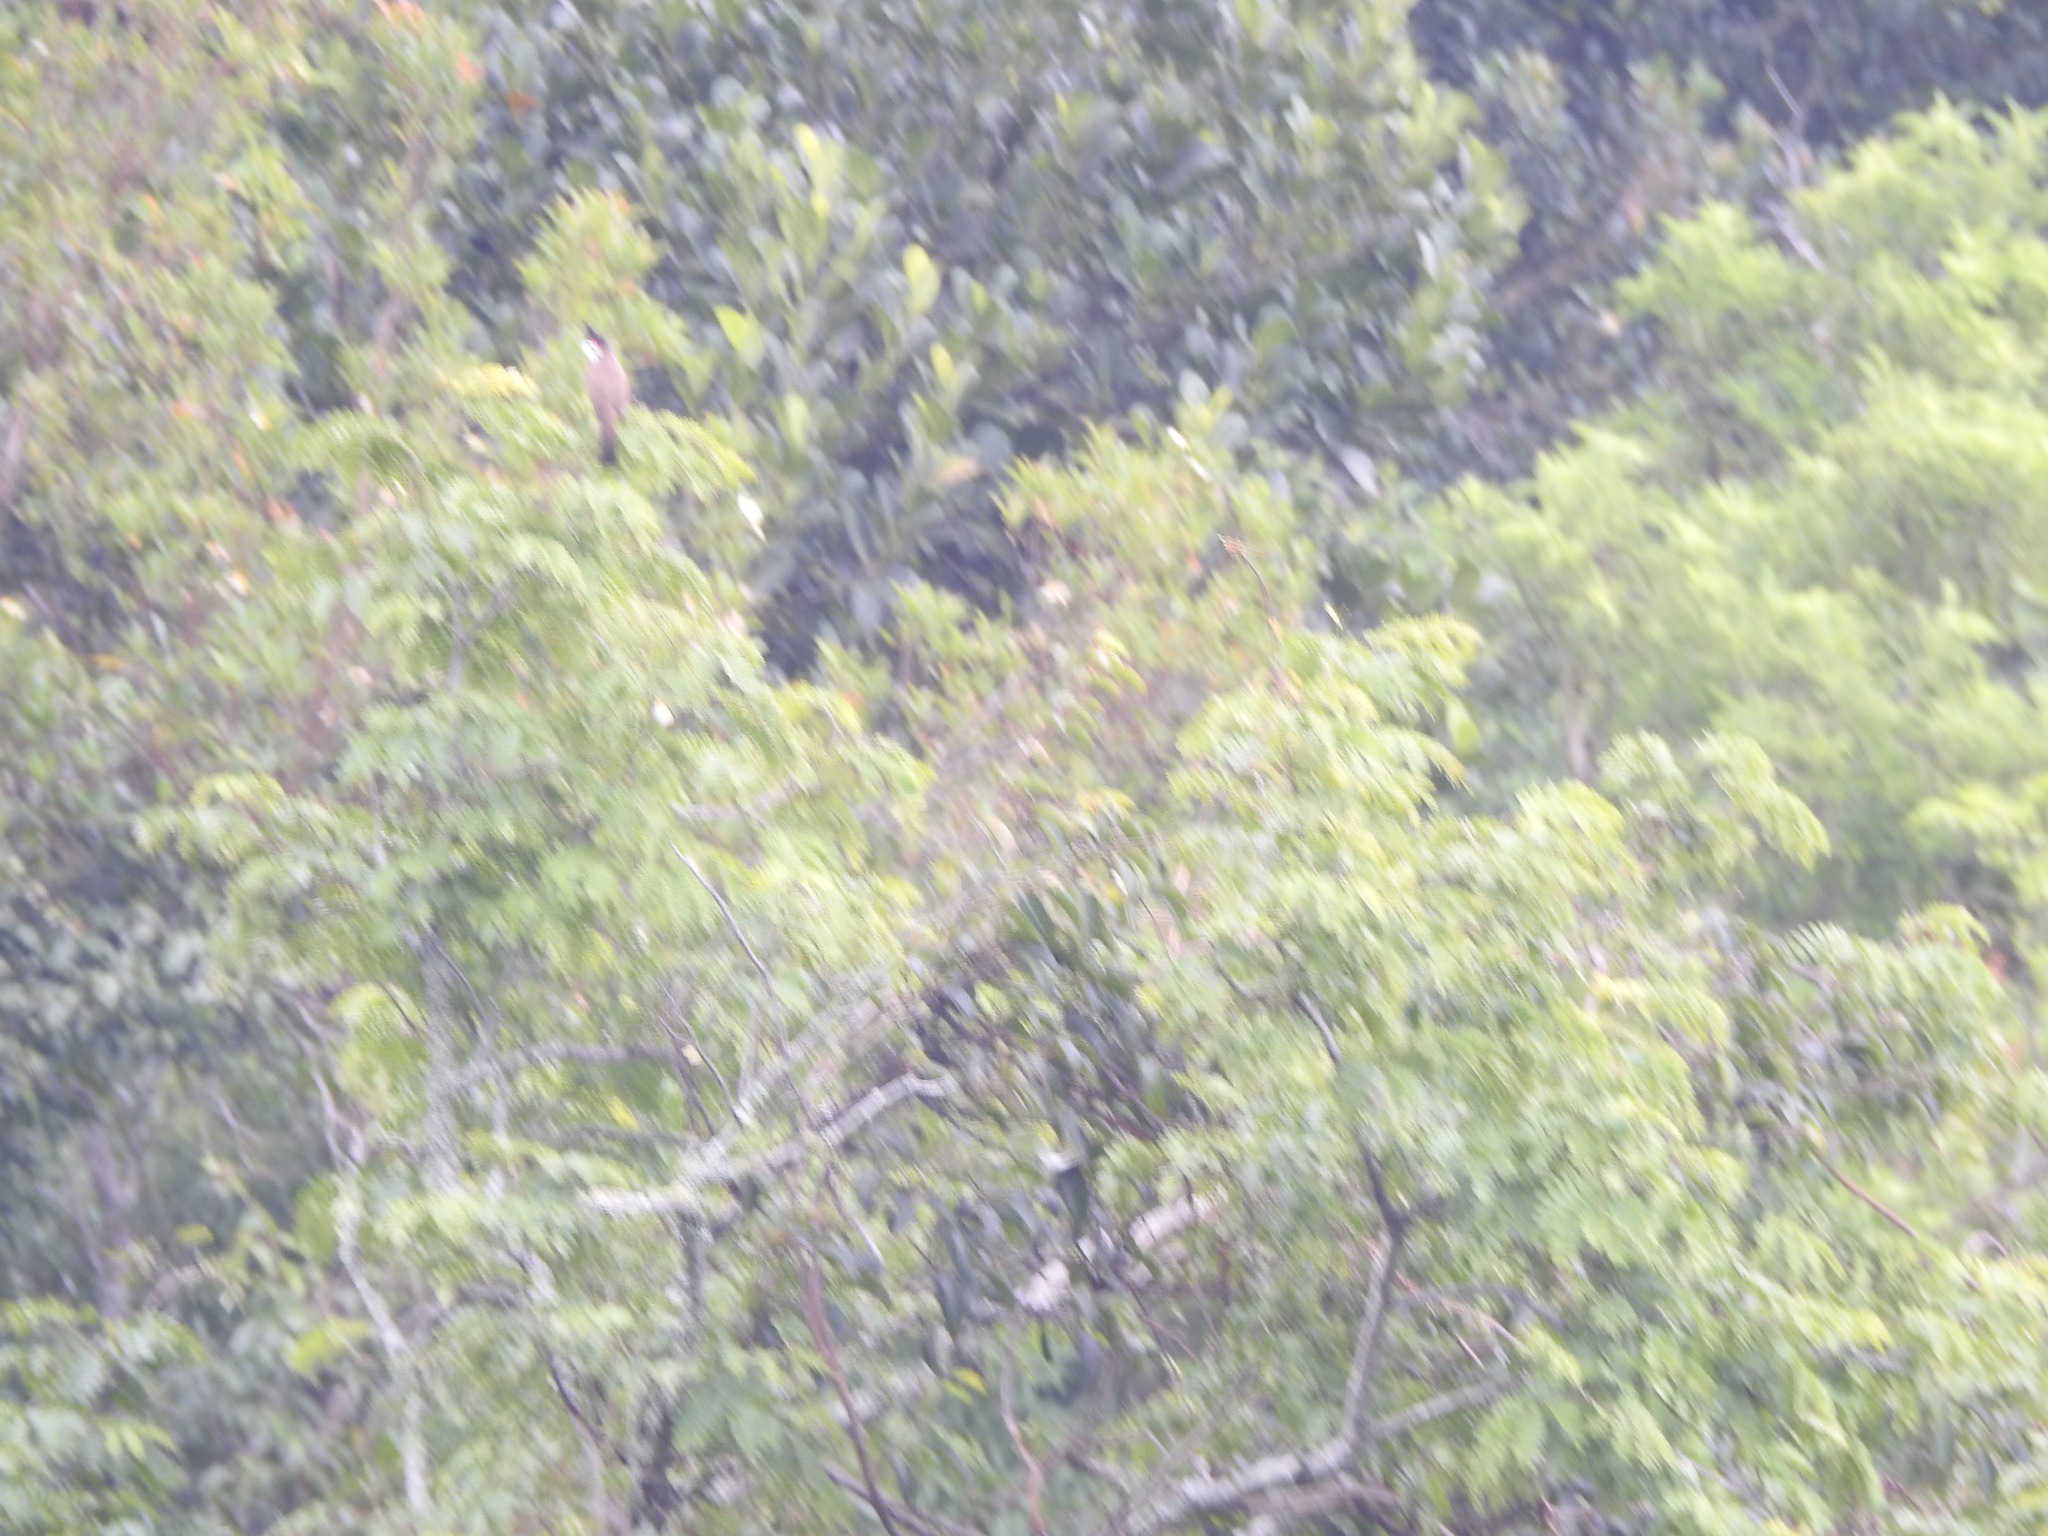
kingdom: Animalia
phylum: Chordata
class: Aves
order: Passeriformes
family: Pycnonotidae
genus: Pycnonotus
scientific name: Pycnonotus jocosus
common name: Red-whiskered bulbul
